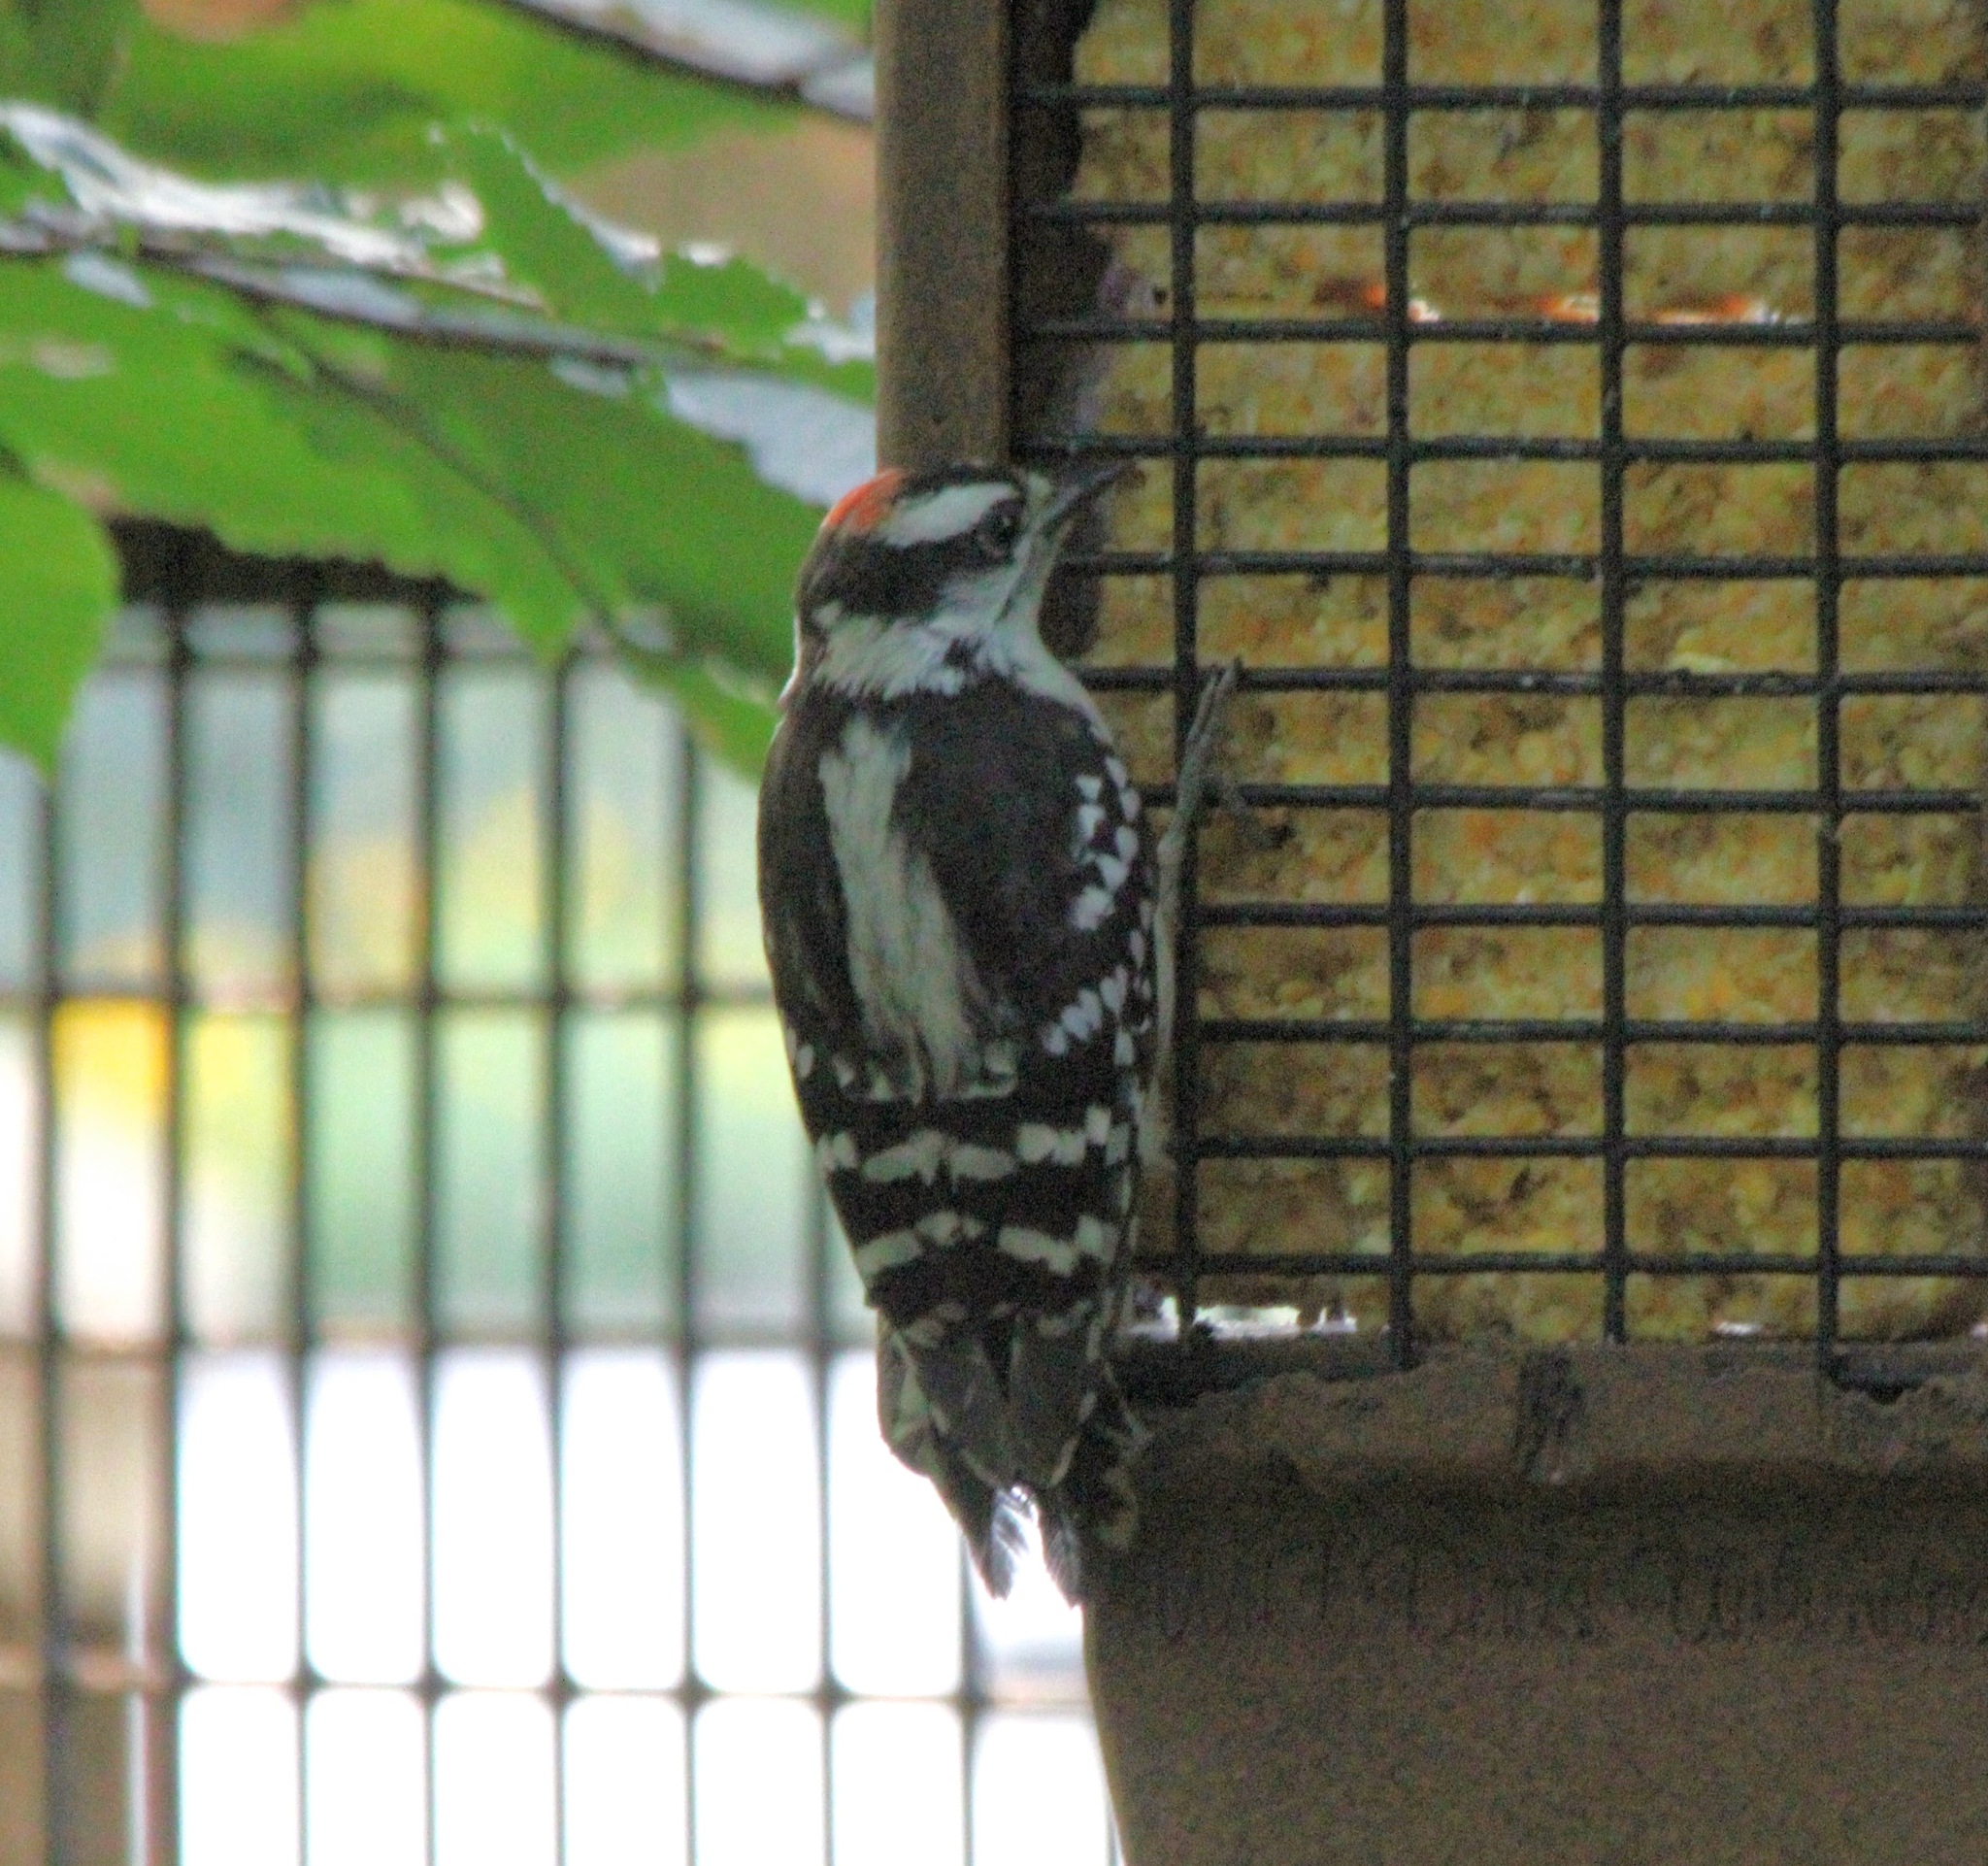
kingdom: Animalia
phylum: Chordata
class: Aves
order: Piciformes
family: Picidae
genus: Dryobates
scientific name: Dryobates pubescens
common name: Downy woodpecker
